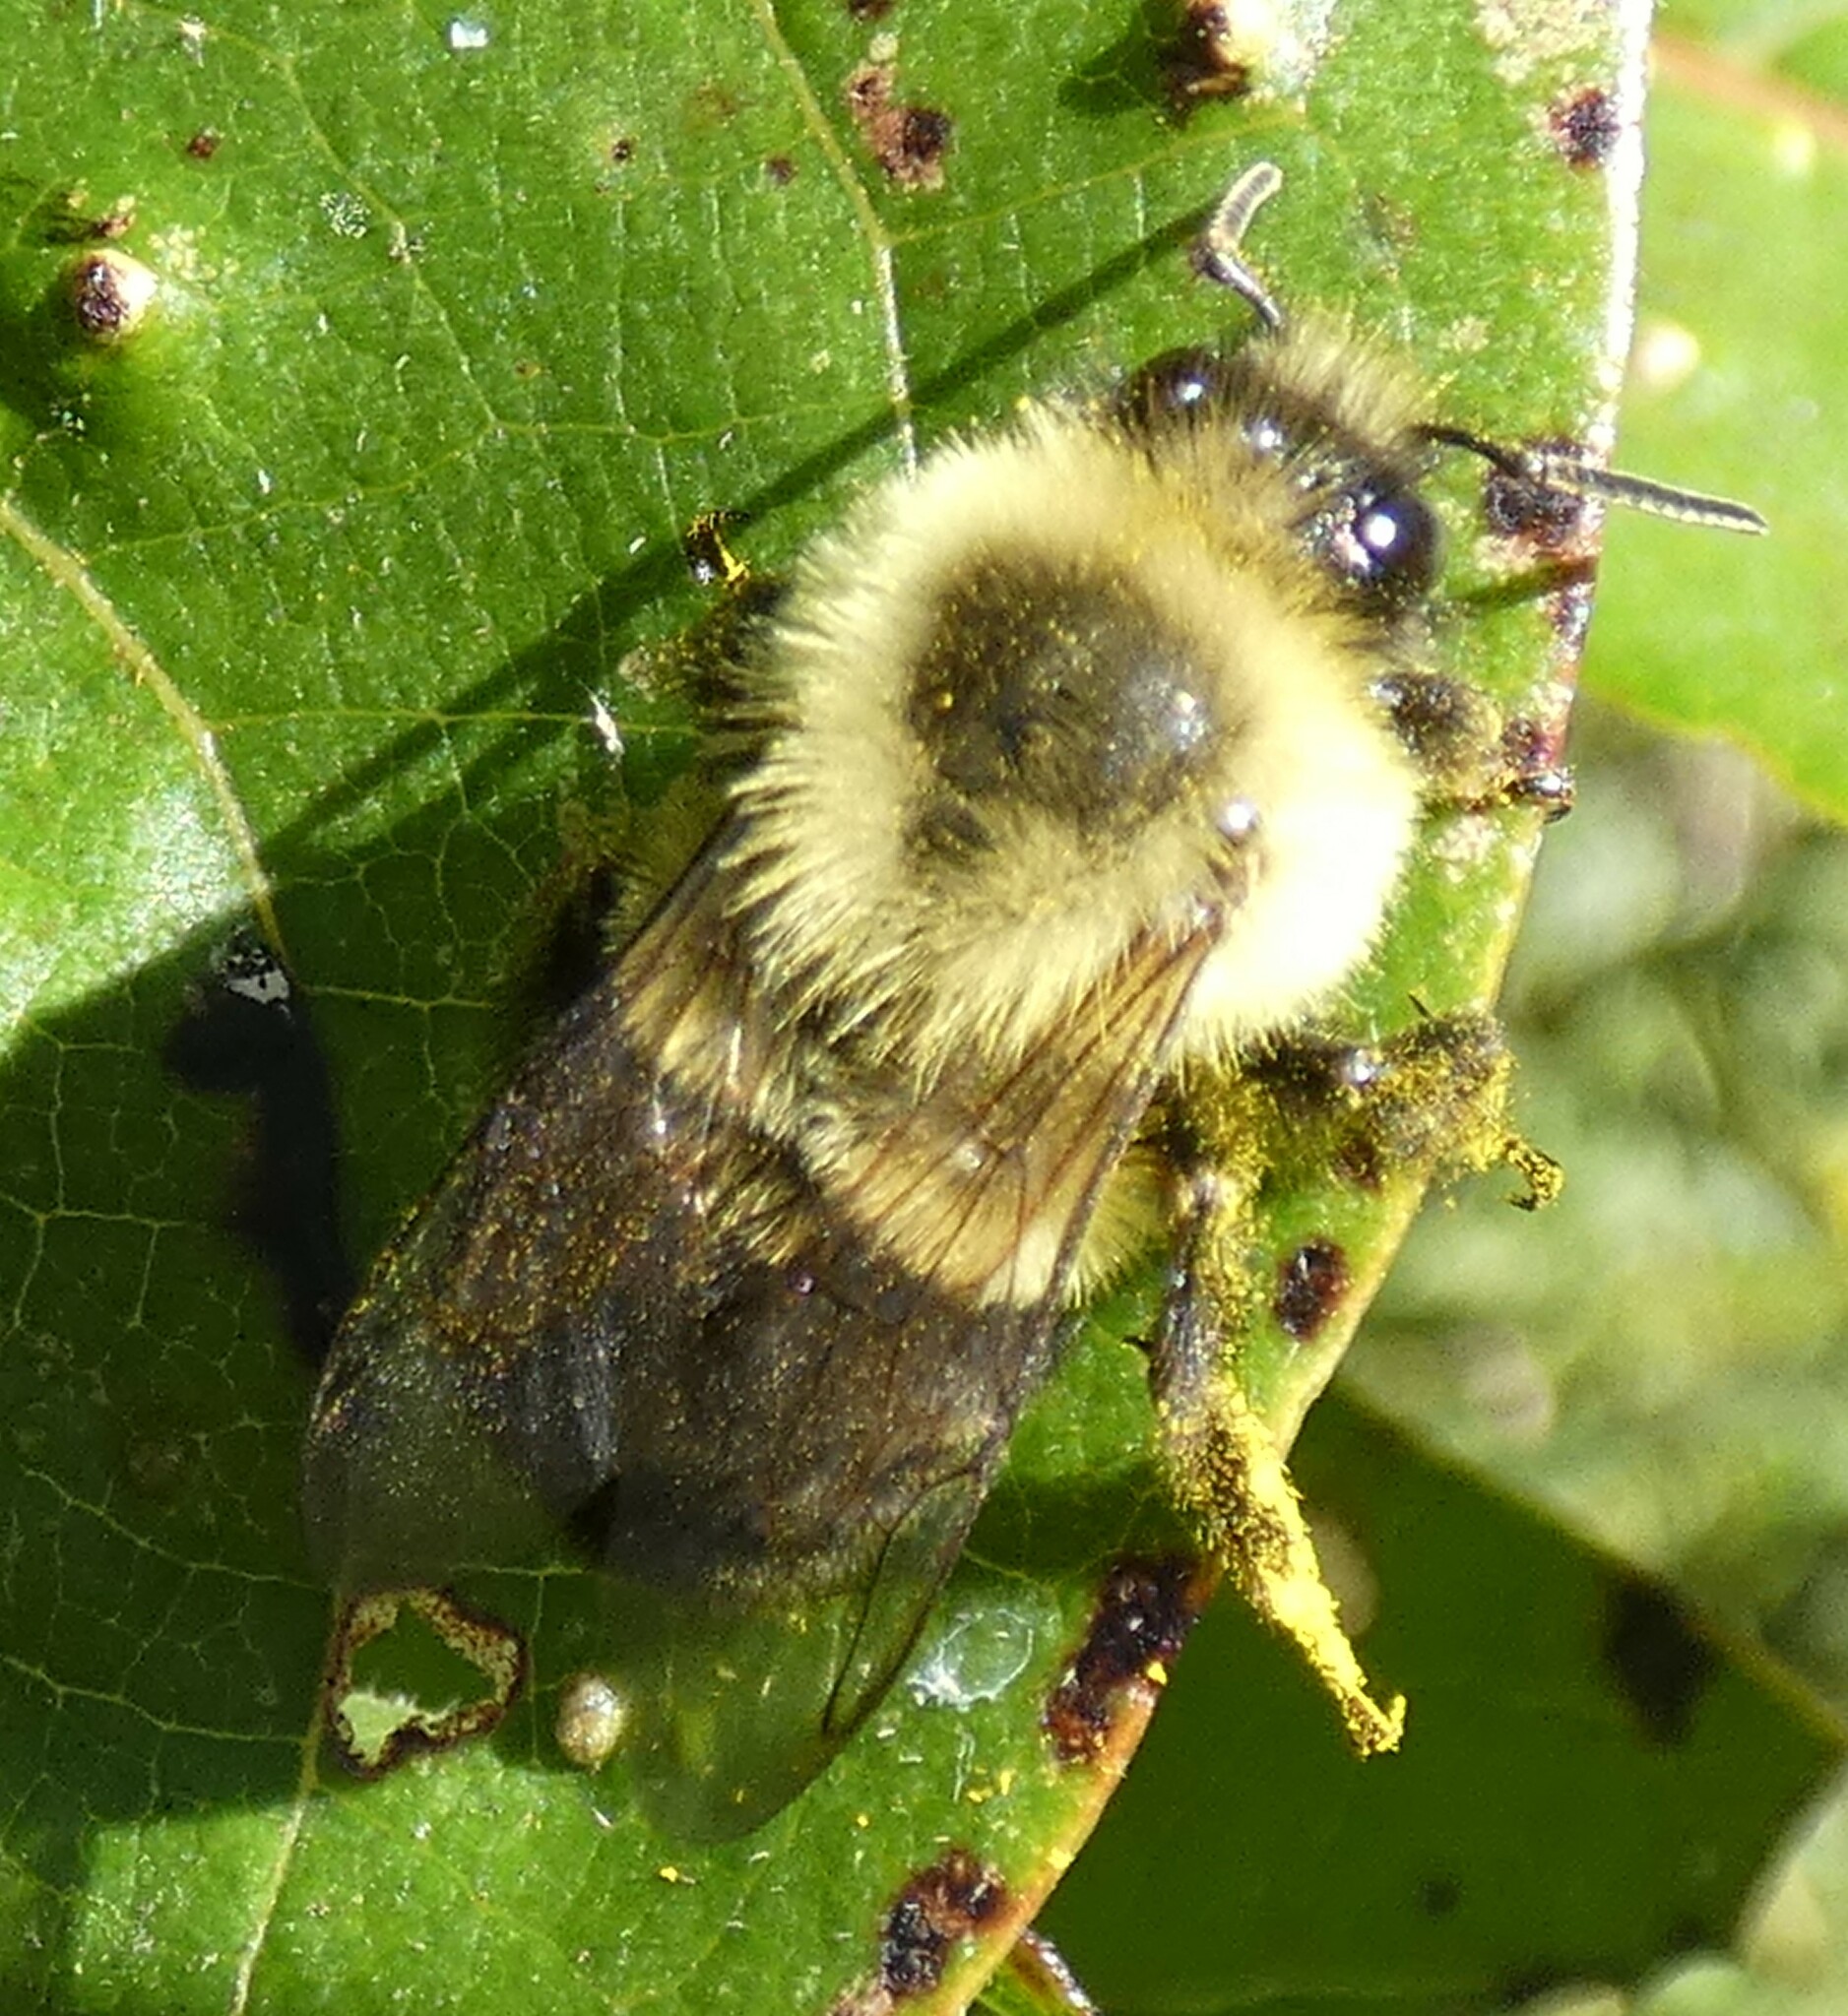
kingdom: Animalia
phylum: Arthropoda
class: Insecta
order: Hymenoptera
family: Apidae
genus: Bombus
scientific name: Bombus impatiens
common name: Common eastern bumble bee
